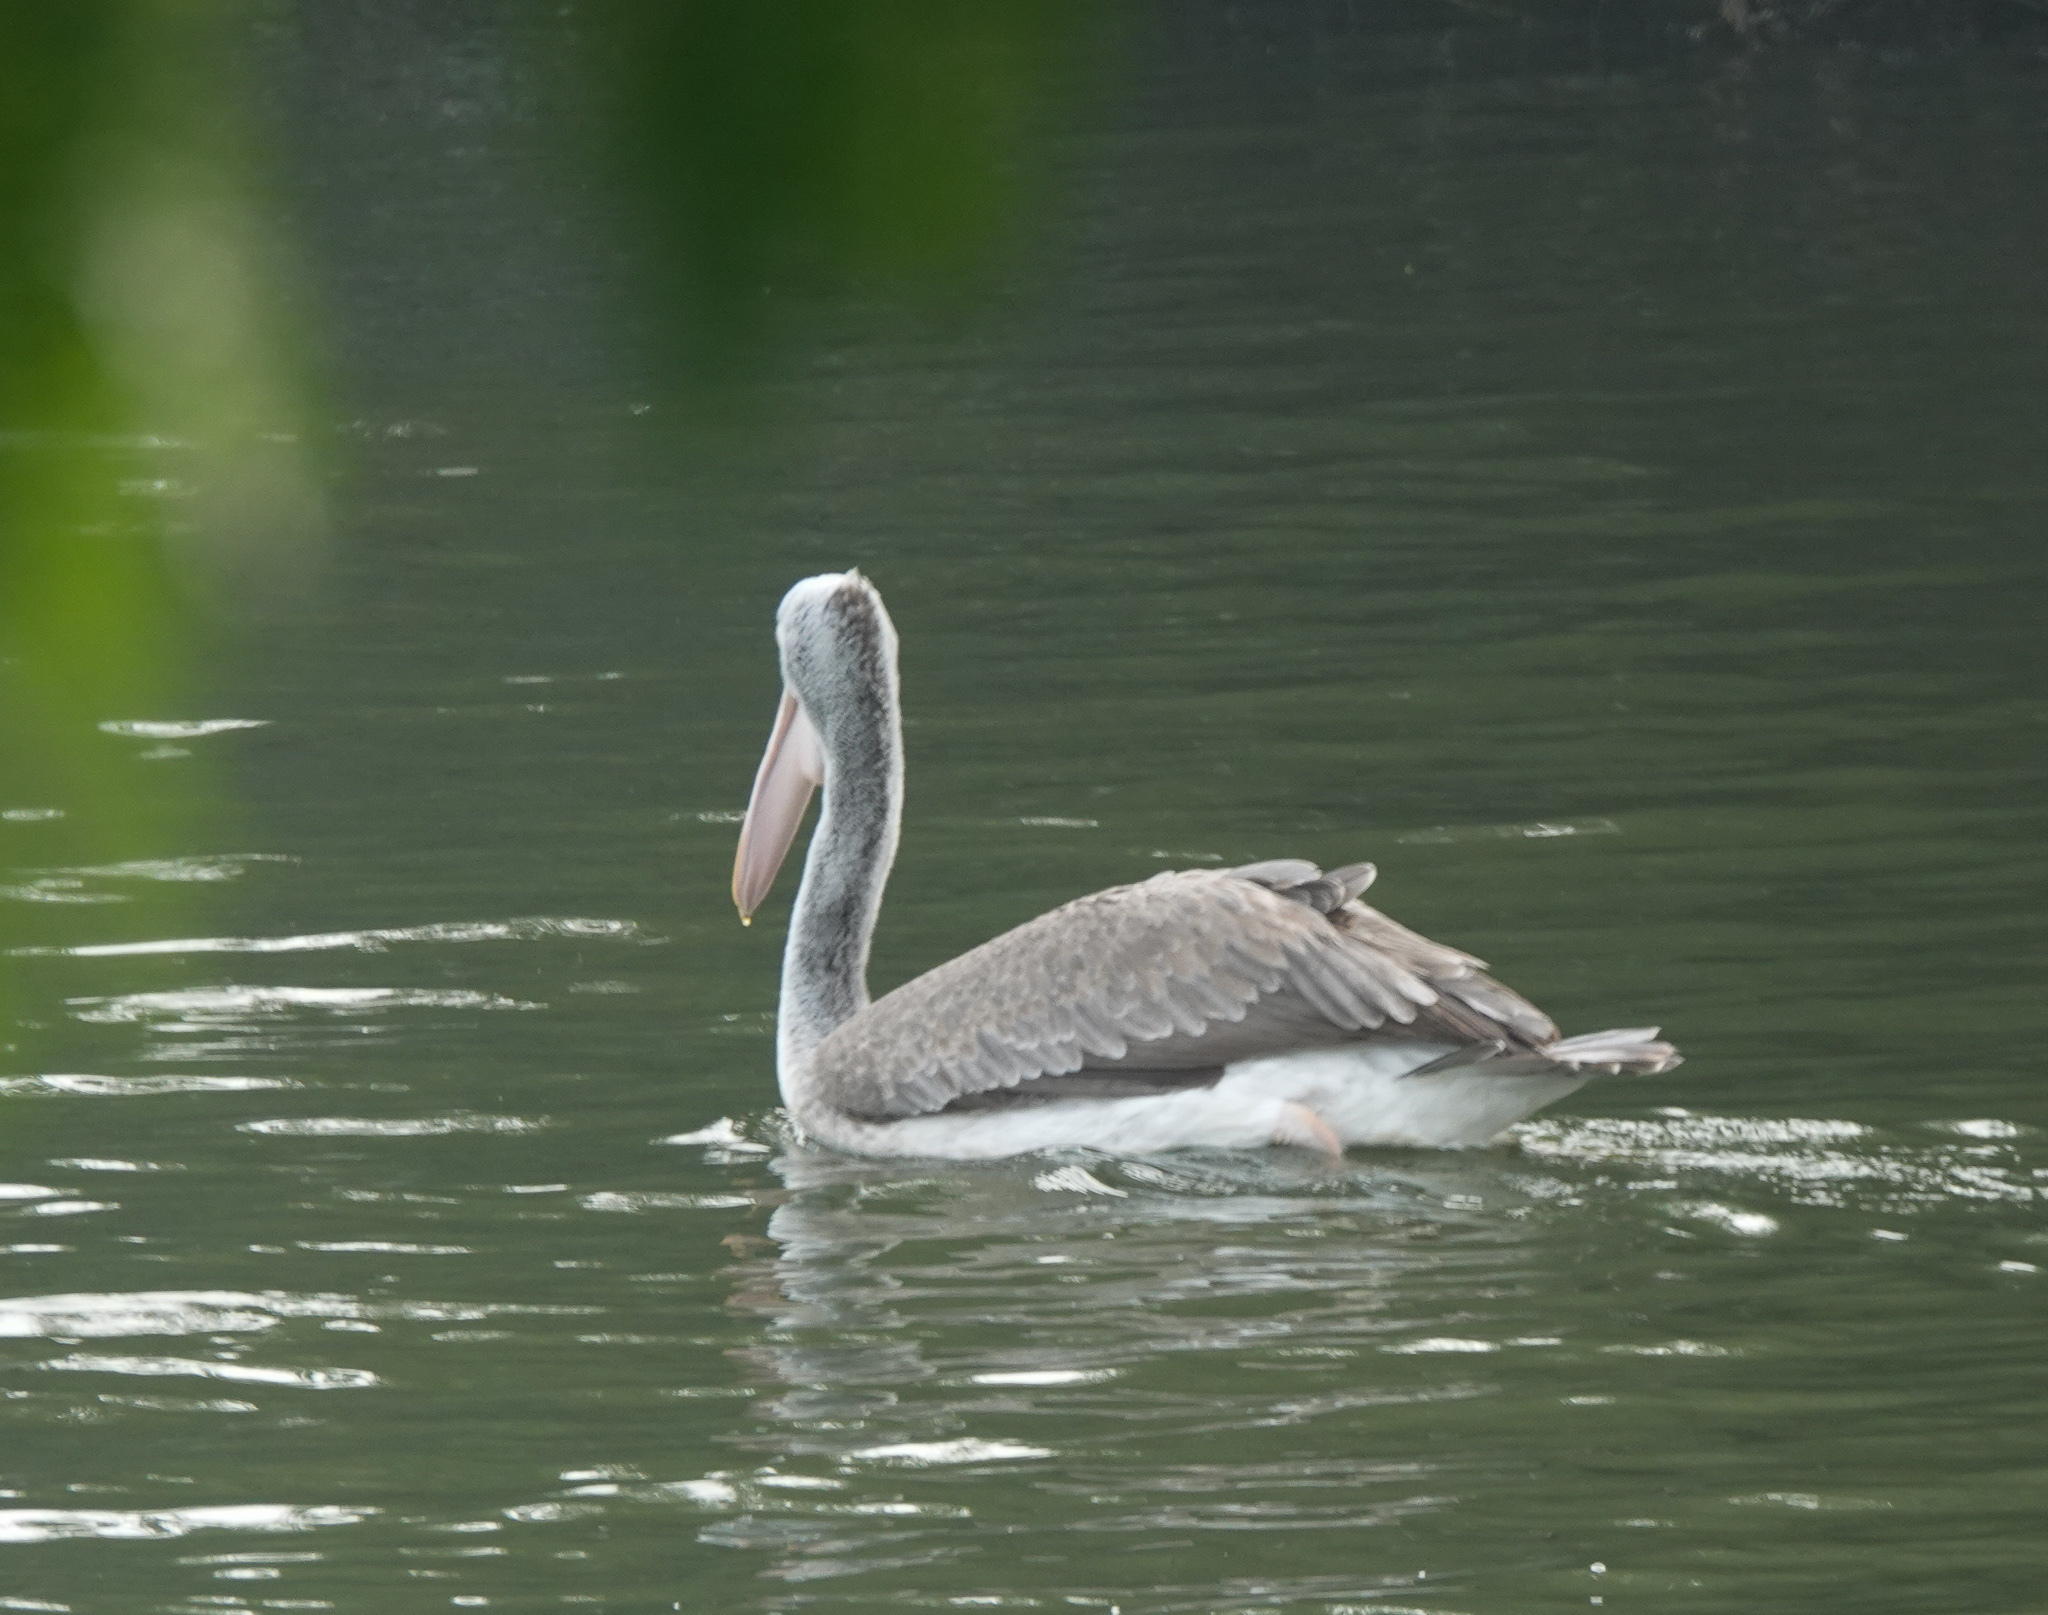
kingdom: Animalia
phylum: Chordata
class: Aves
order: Pelecaniformes
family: Pelecanidae
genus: Pelecanus
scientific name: Pelecanus philippensis
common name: Spot-billed pelican
